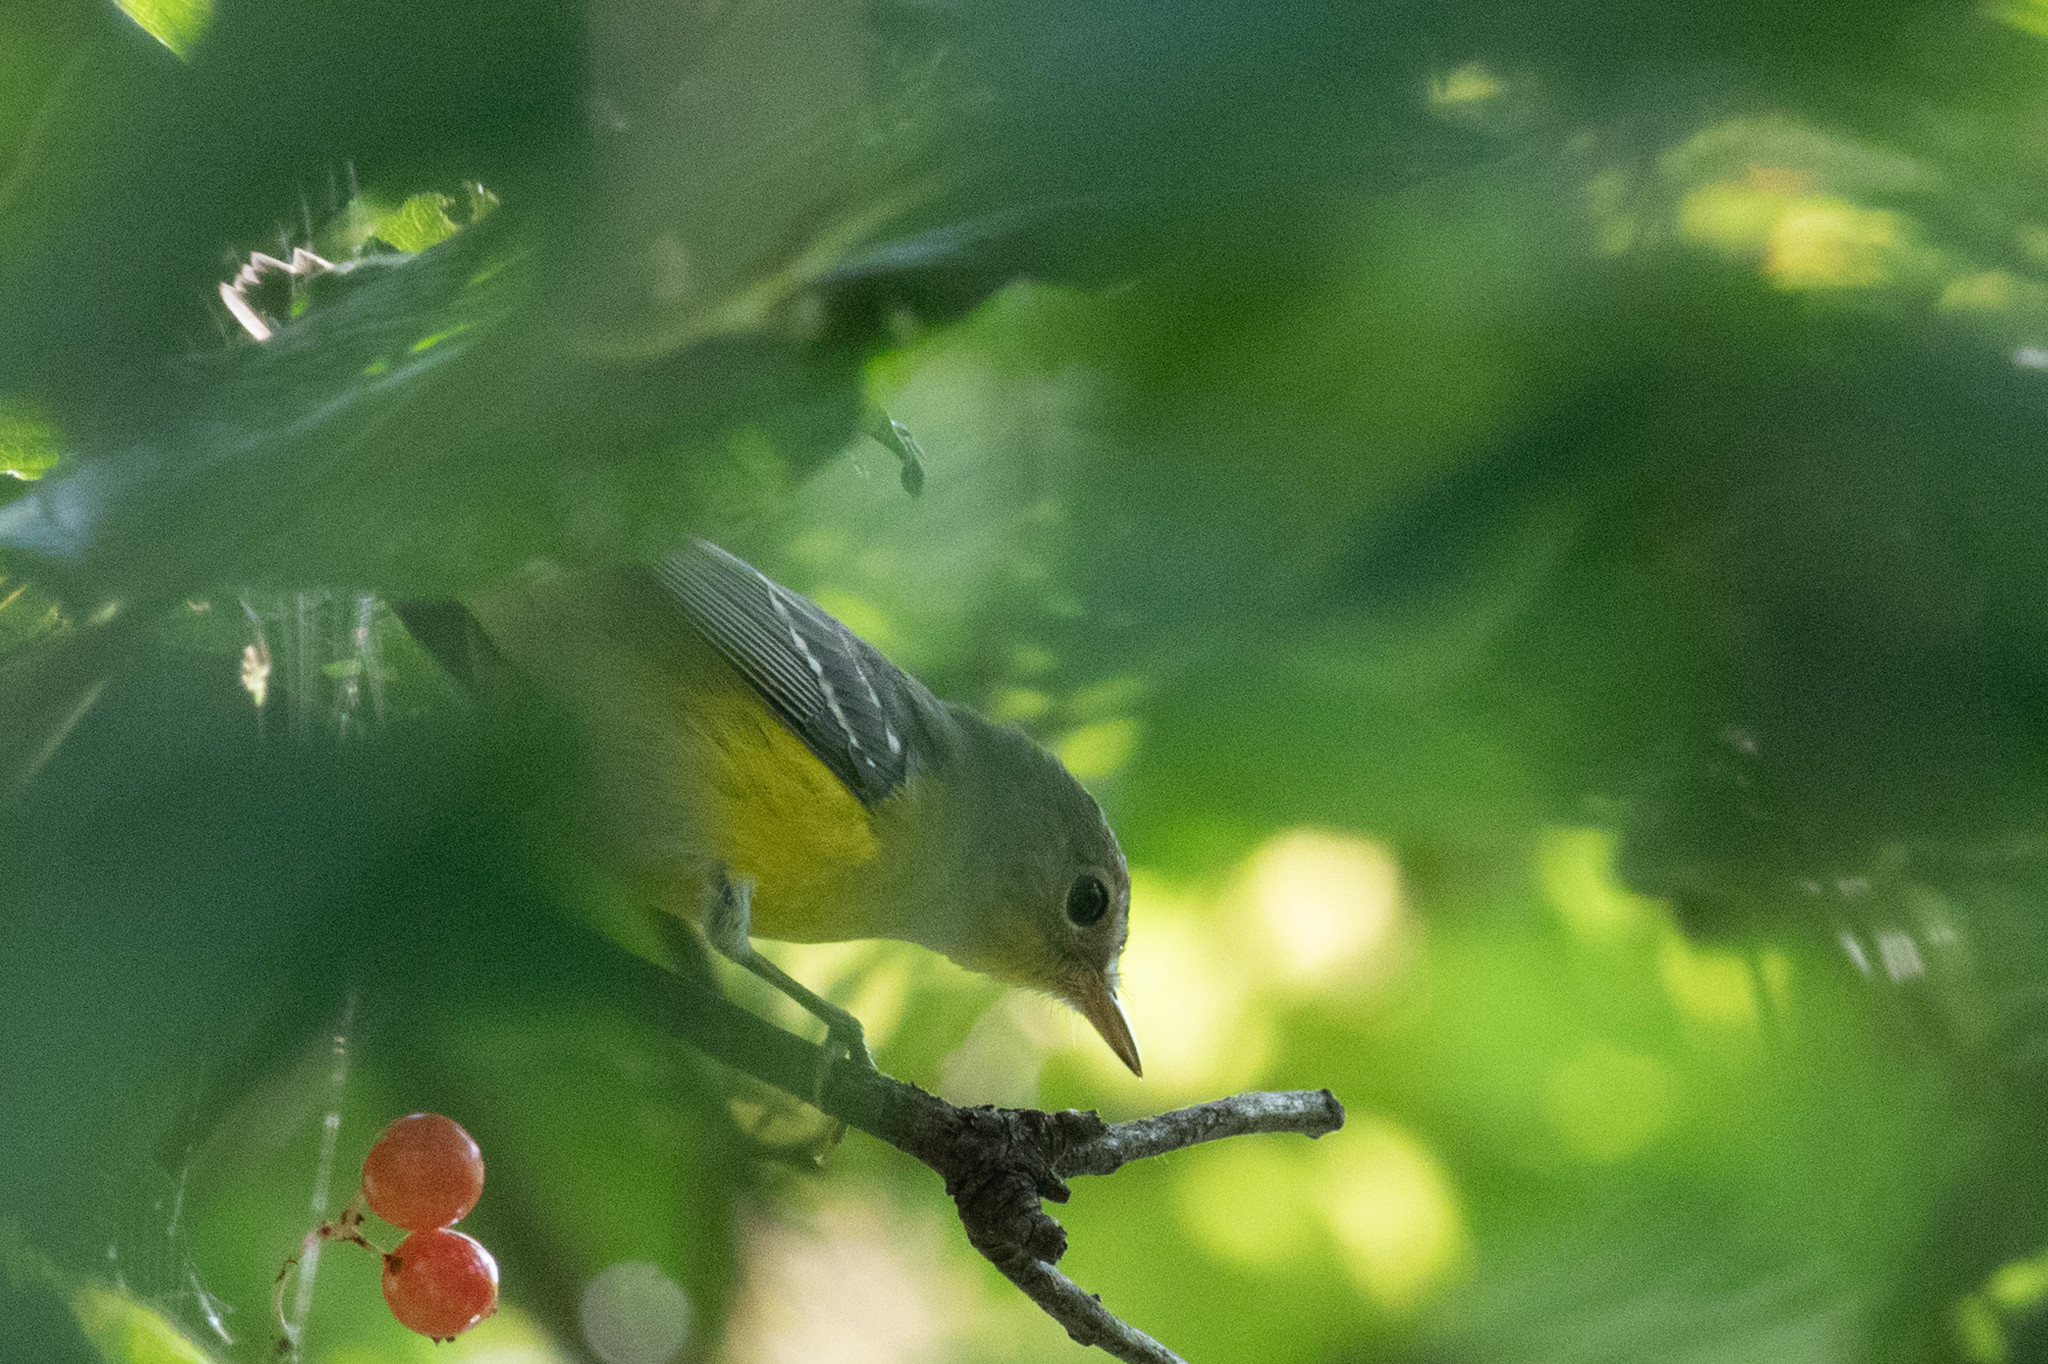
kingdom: Animalia
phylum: Chordata
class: Aves
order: Passeriformes
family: Parulidae
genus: Setophaga
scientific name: Setophaga magnolia
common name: Magnolia warbler
